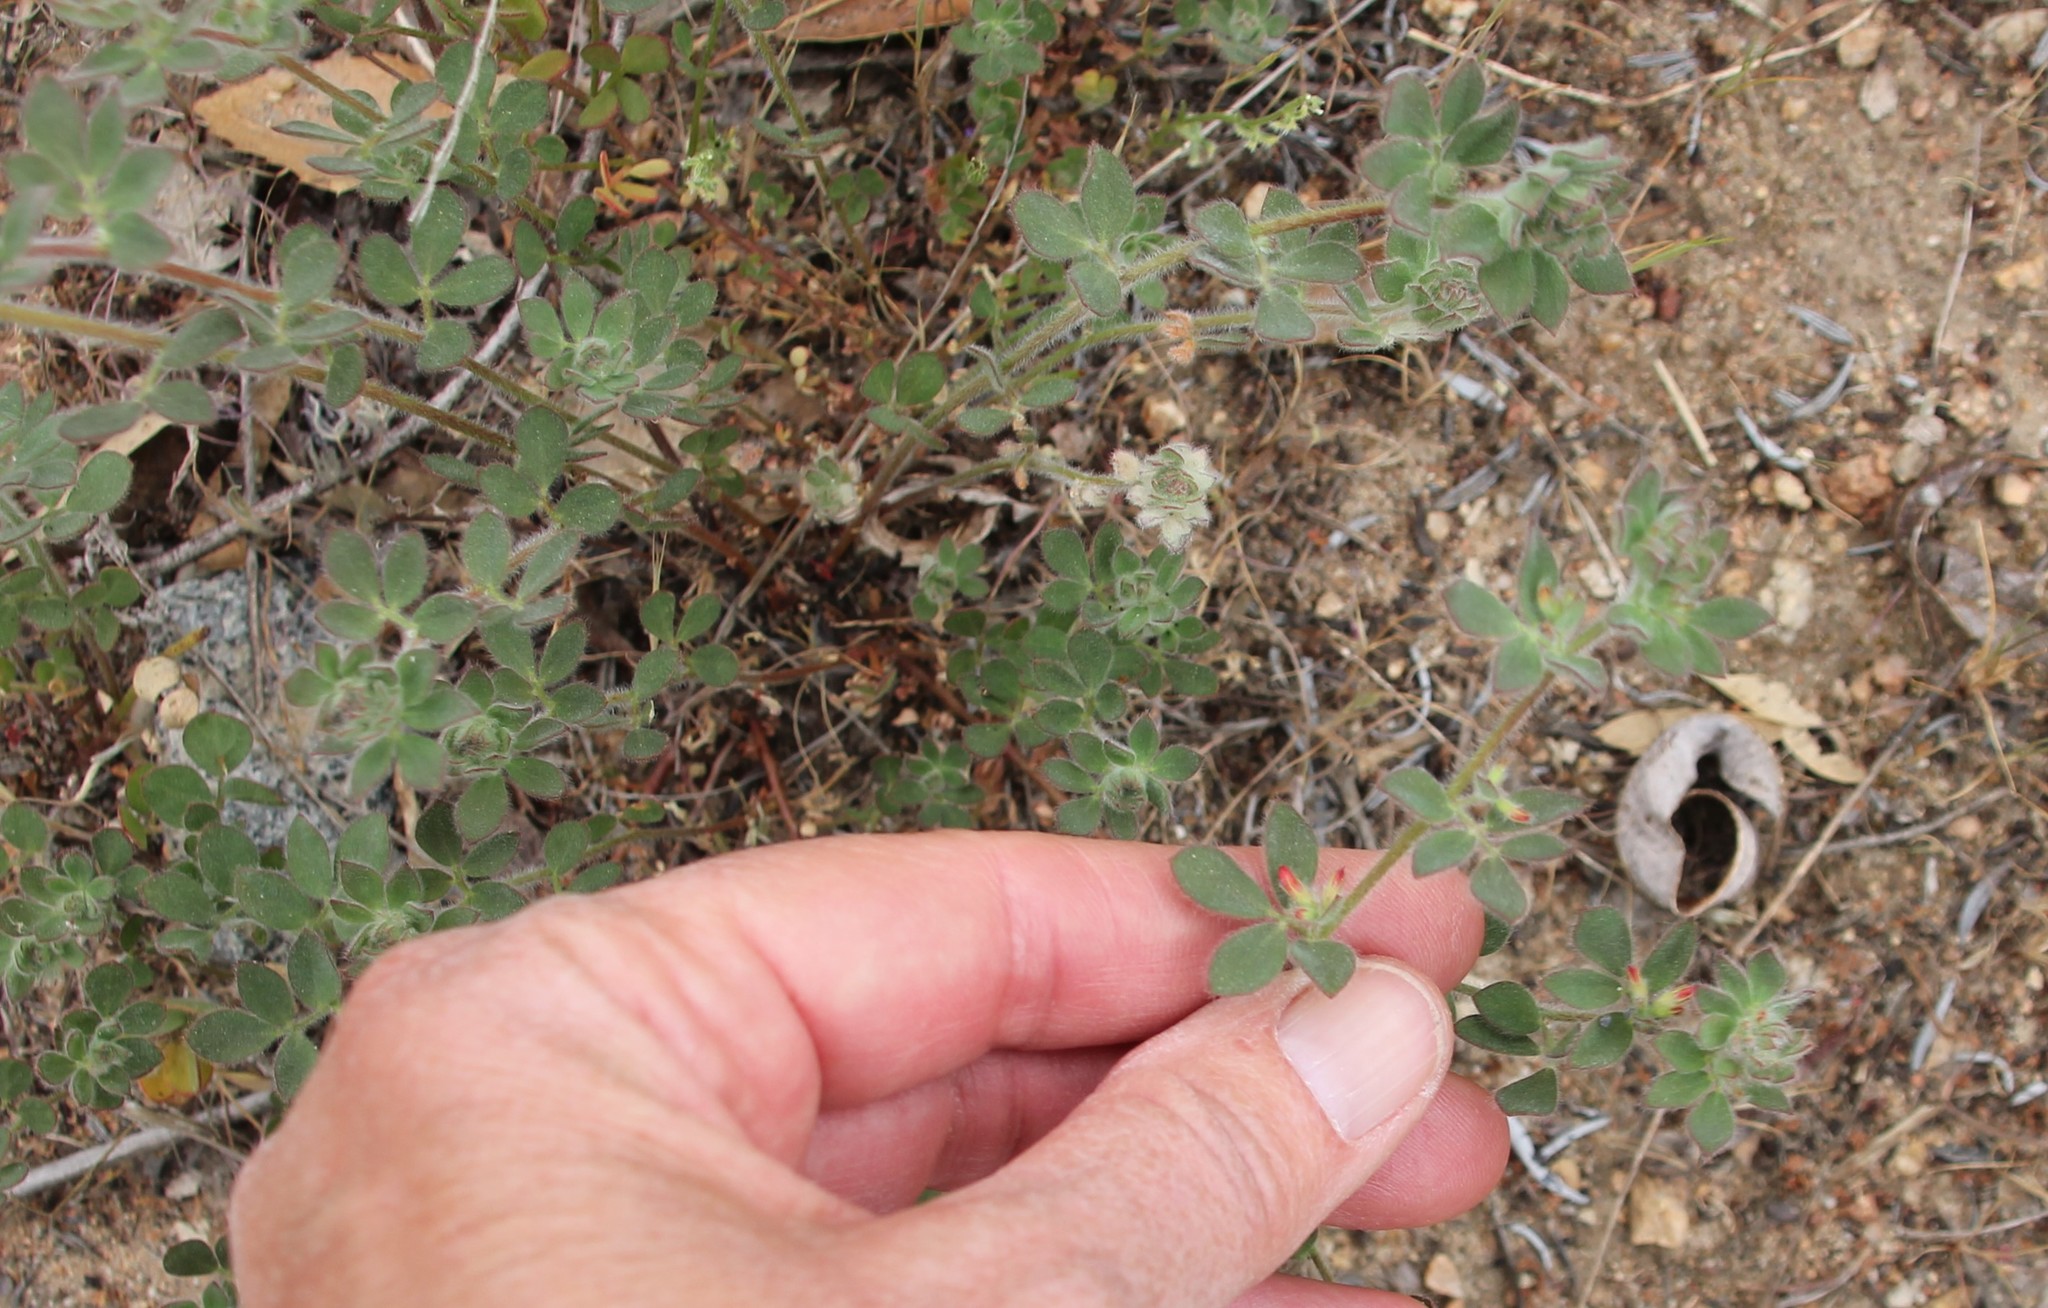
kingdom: Plantae
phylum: Tracheophyta
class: Magnoliopsida
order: Fabales
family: Fabaceae
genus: Acmispon
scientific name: Acmispon tomentosus
